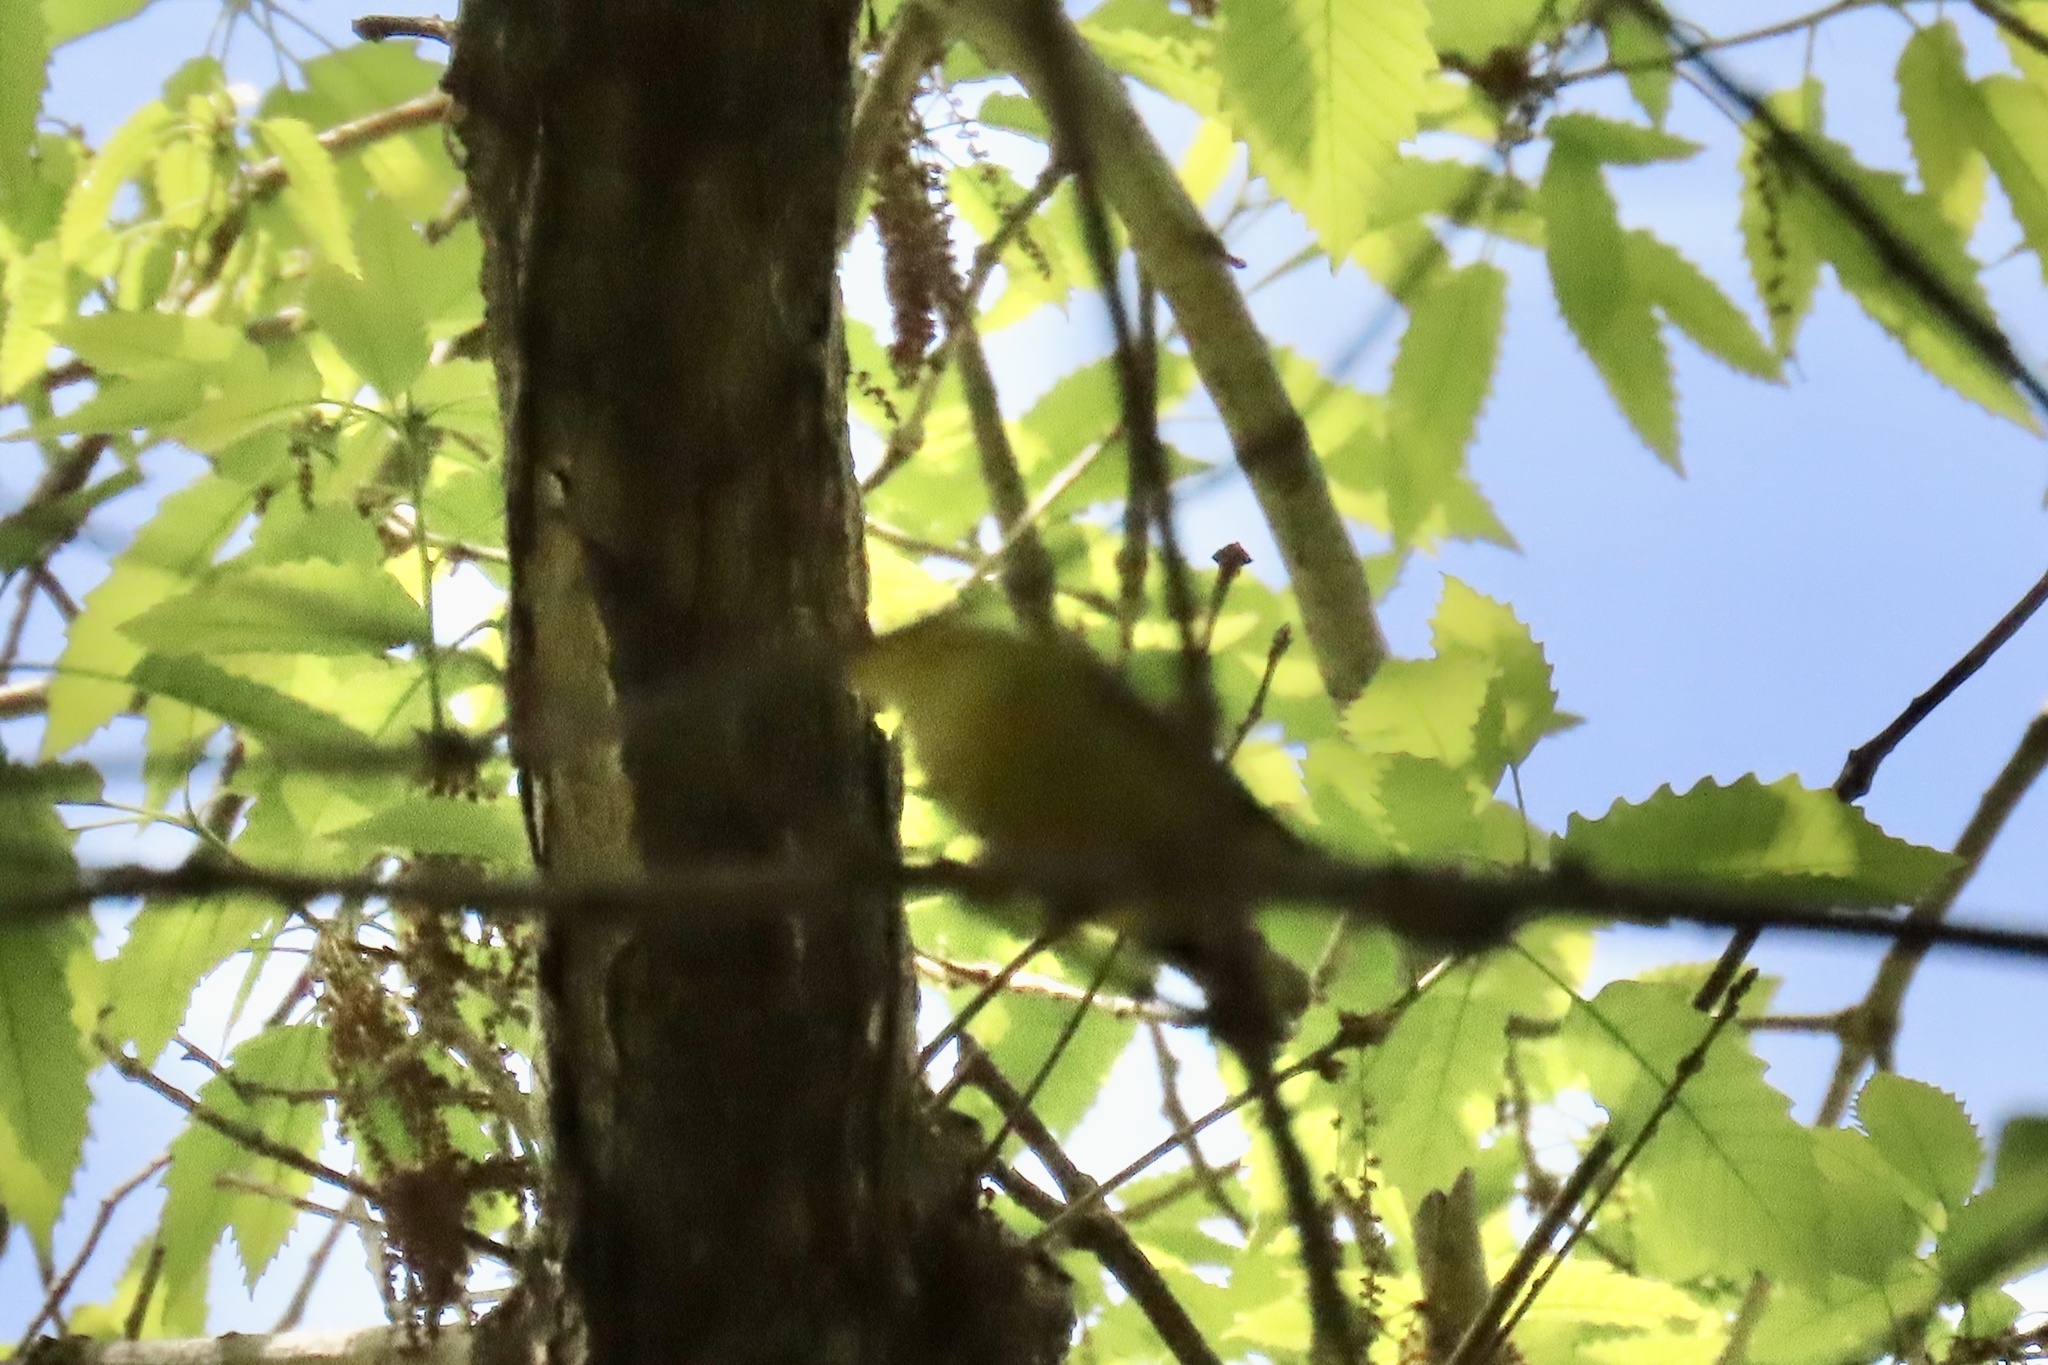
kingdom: Animalia
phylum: Chordata
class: Aves
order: Passeriformes
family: Parulidae
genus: Cardellina
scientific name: Cardellina pusilla
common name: Wilson's warbler
